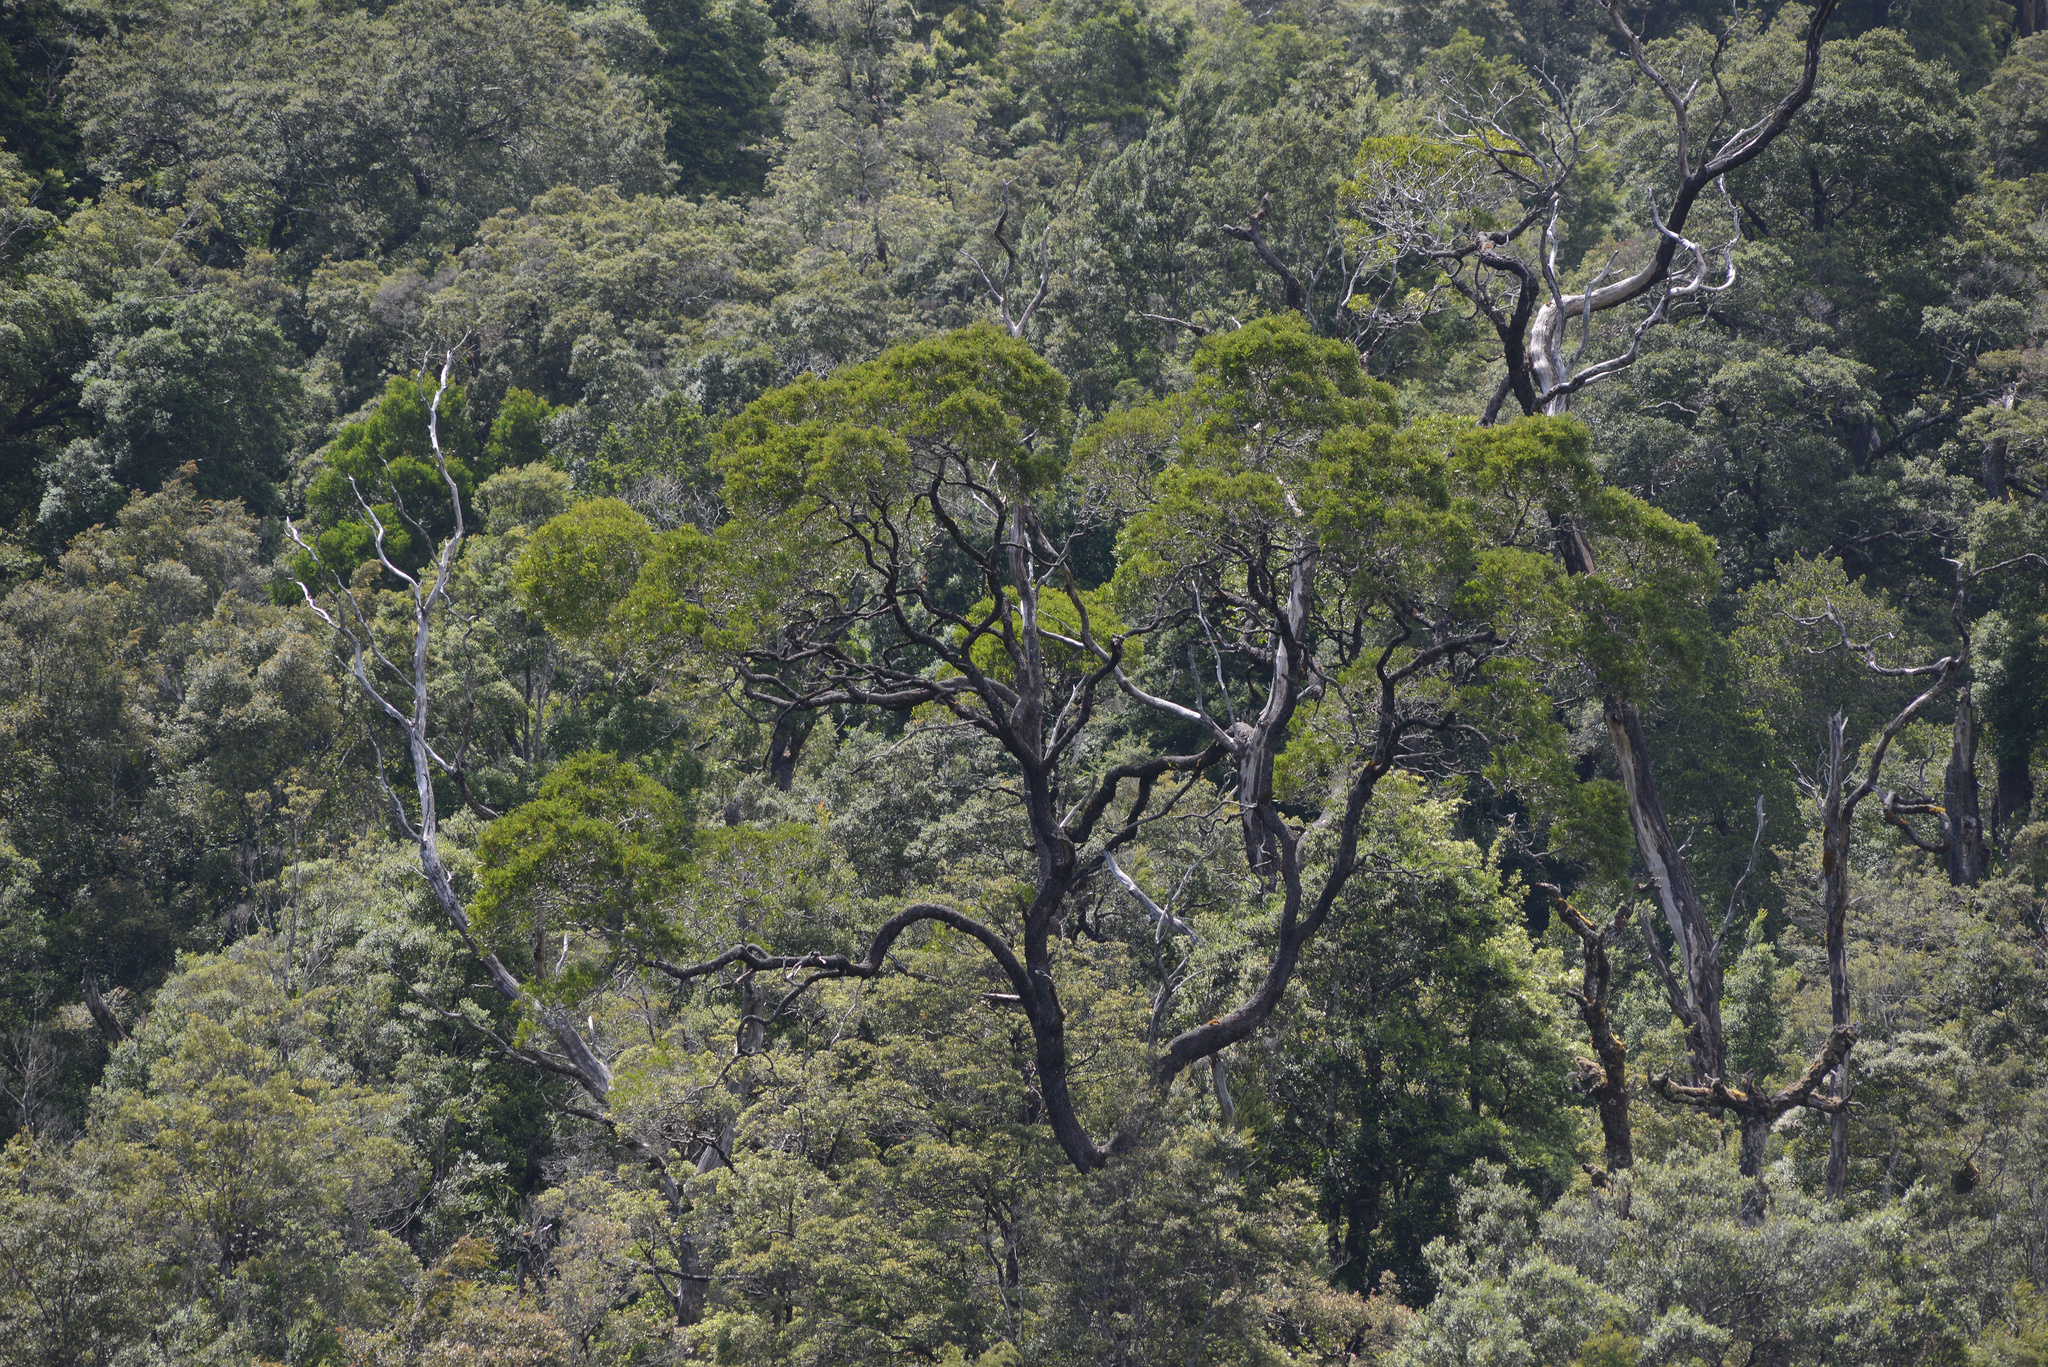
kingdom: Plantae
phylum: Tracheophyta
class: Magnoliopsida
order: Fabales
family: Fabaceae
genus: Acacia
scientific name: Acacia melanoxylon
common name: Blackwood
